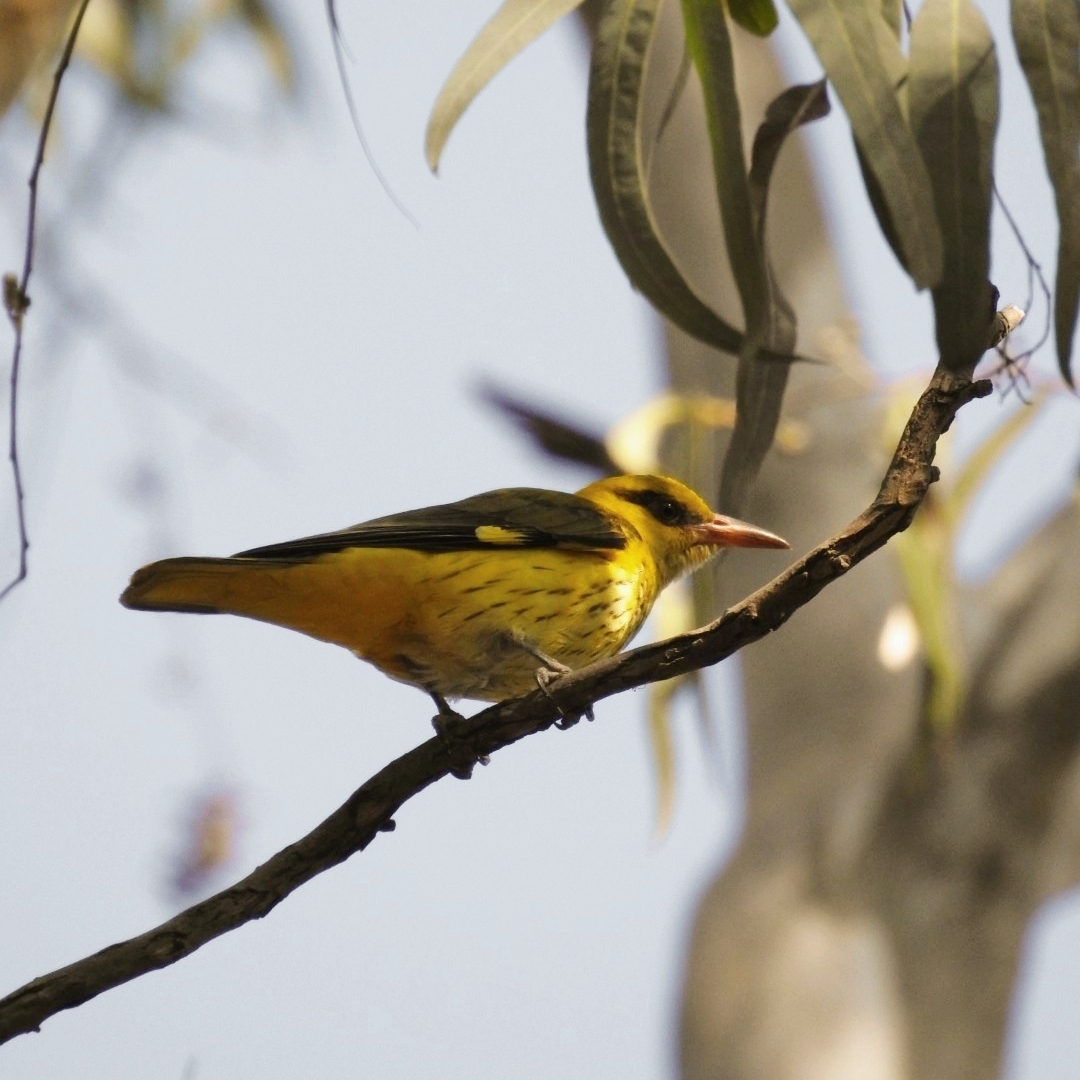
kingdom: Animalia
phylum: Chordata
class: Aves
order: Passeriformes
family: Oriolidae
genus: Oriolus
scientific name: Oriolus kundoo
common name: Indian golden oriole
